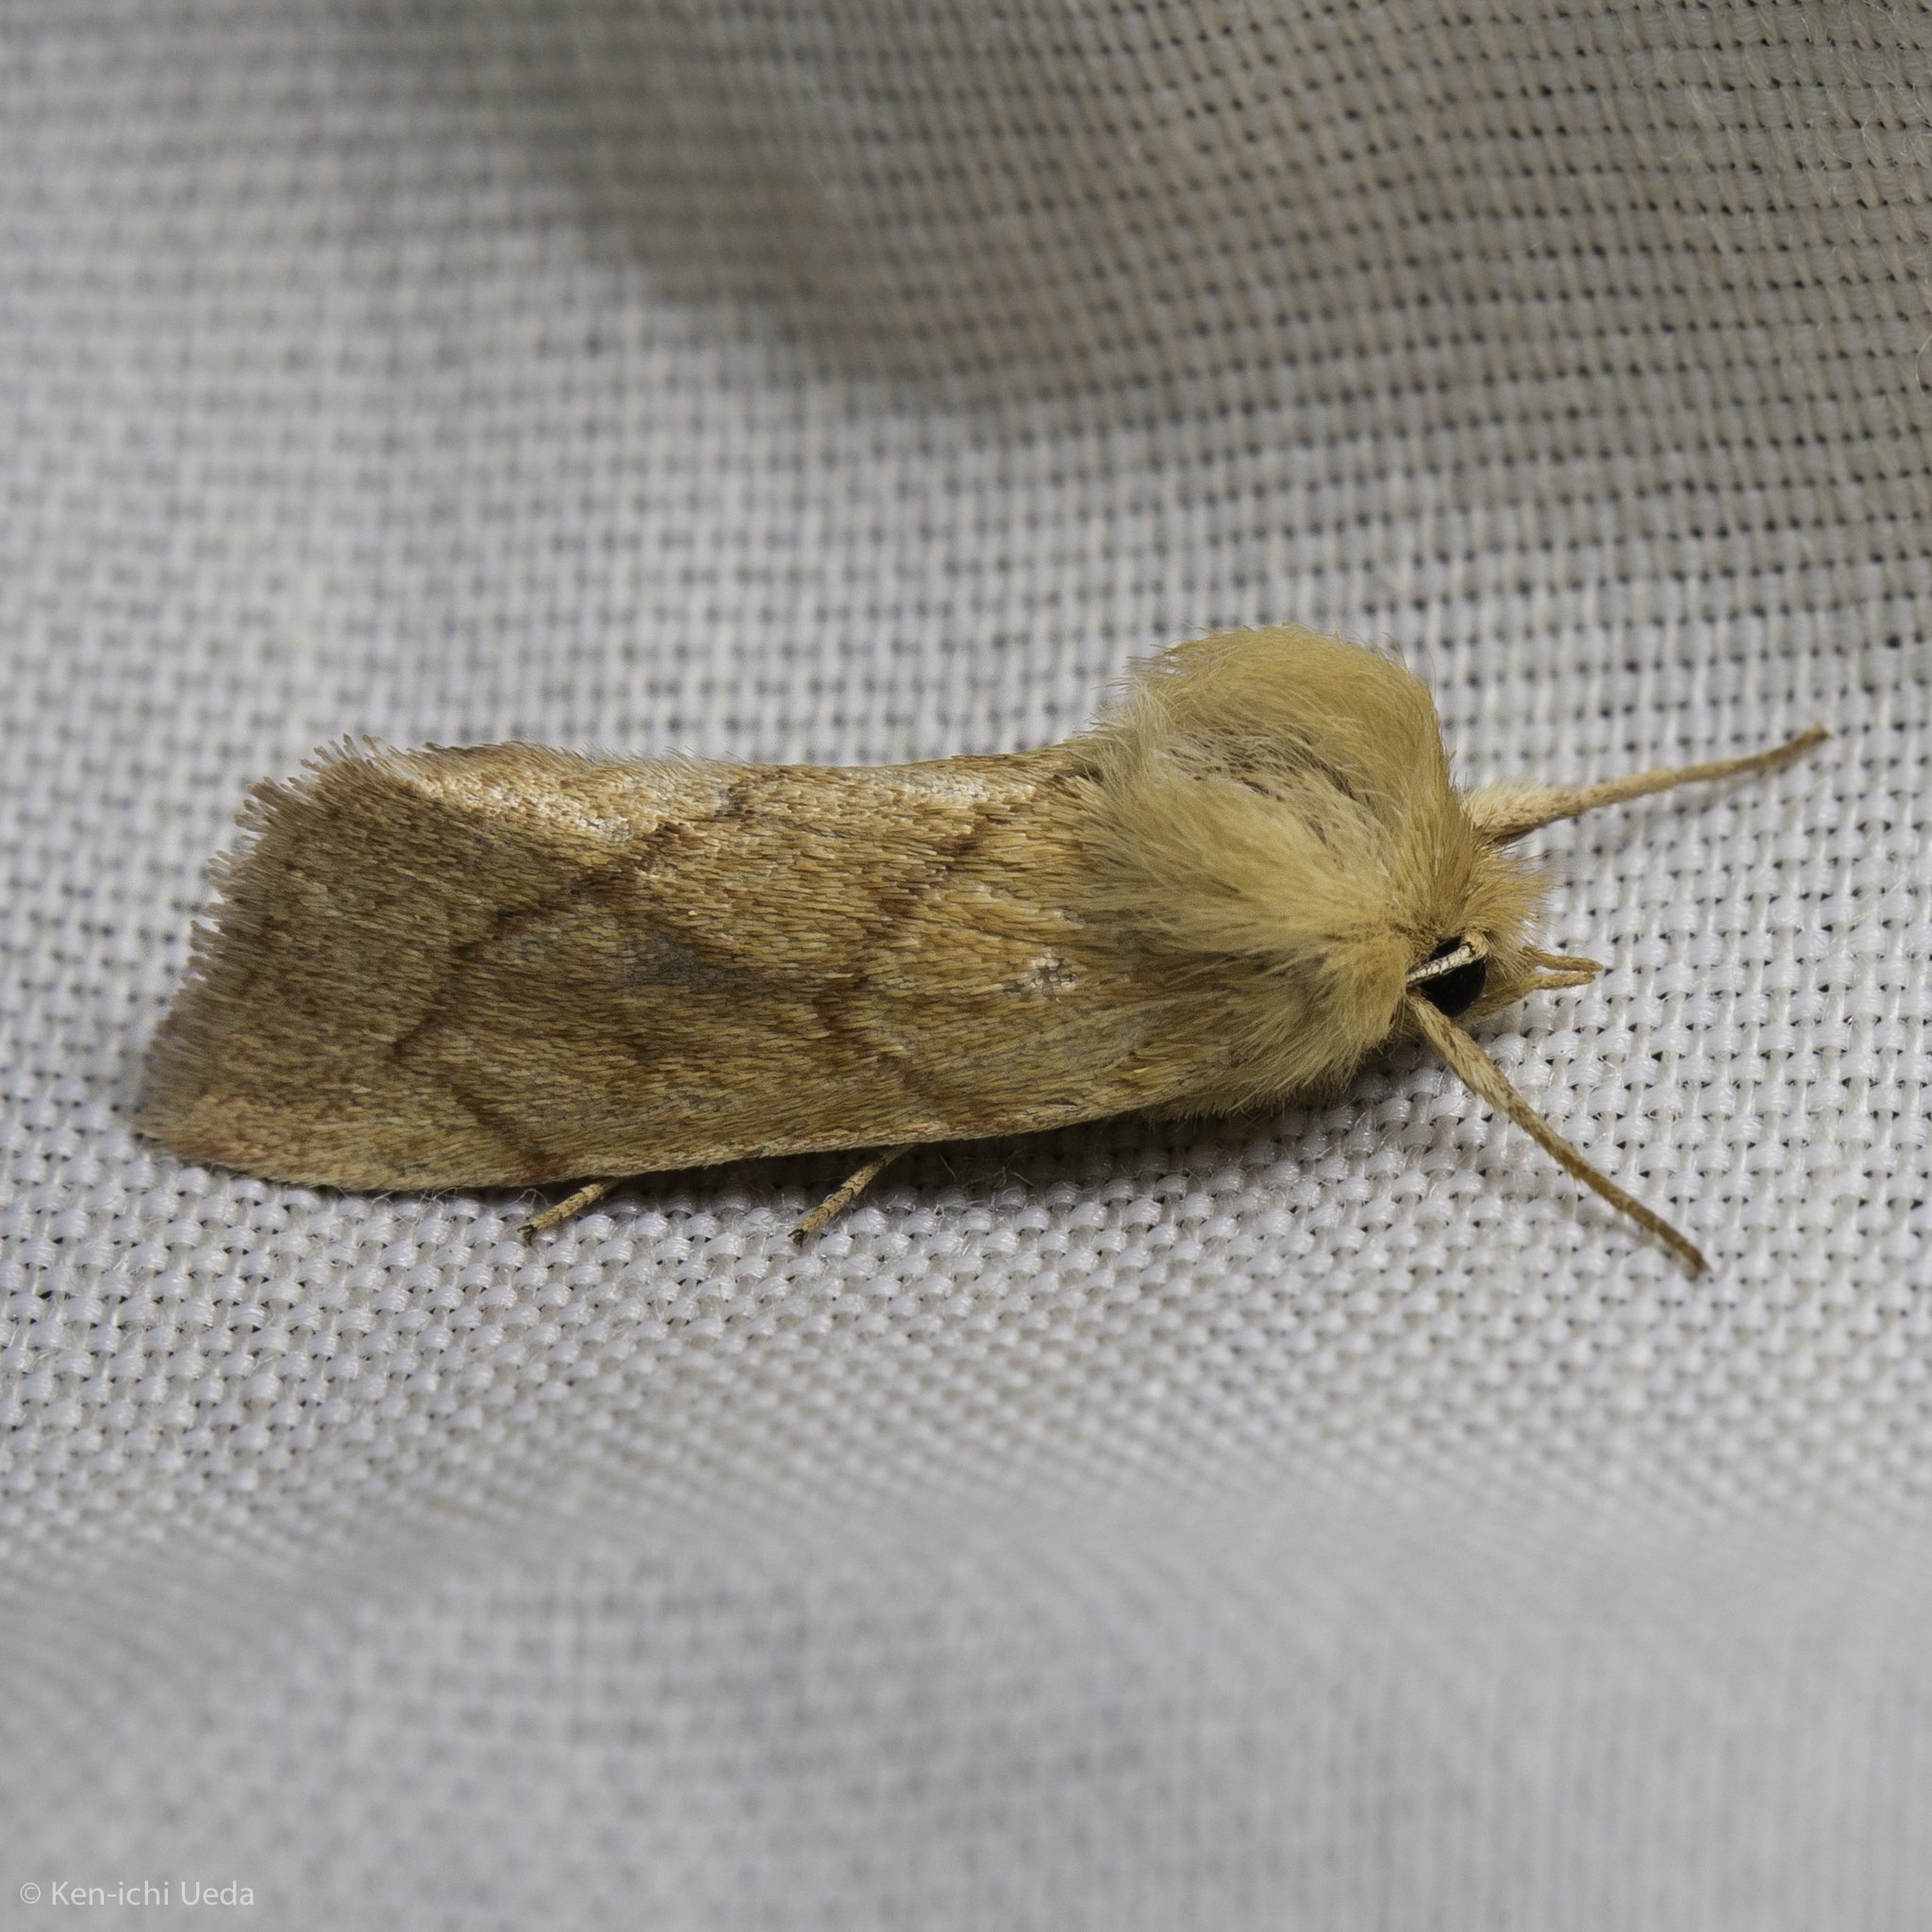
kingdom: Animalia
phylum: Arthropoda
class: Insecta
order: Lepidoptera
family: Noctuidae
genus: Zosteropoda
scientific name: Zosteropoda hirtipes
